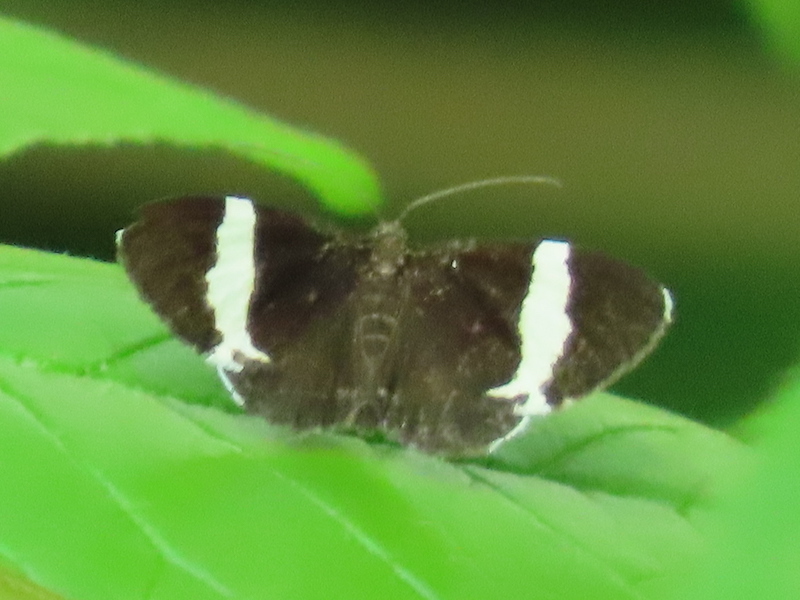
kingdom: Animalia
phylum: Arthropoda
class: Insecta
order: Lepidoptera
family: Geometridae
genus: Trichodezia
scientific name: Trichodezia albovittata
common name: White striped black
